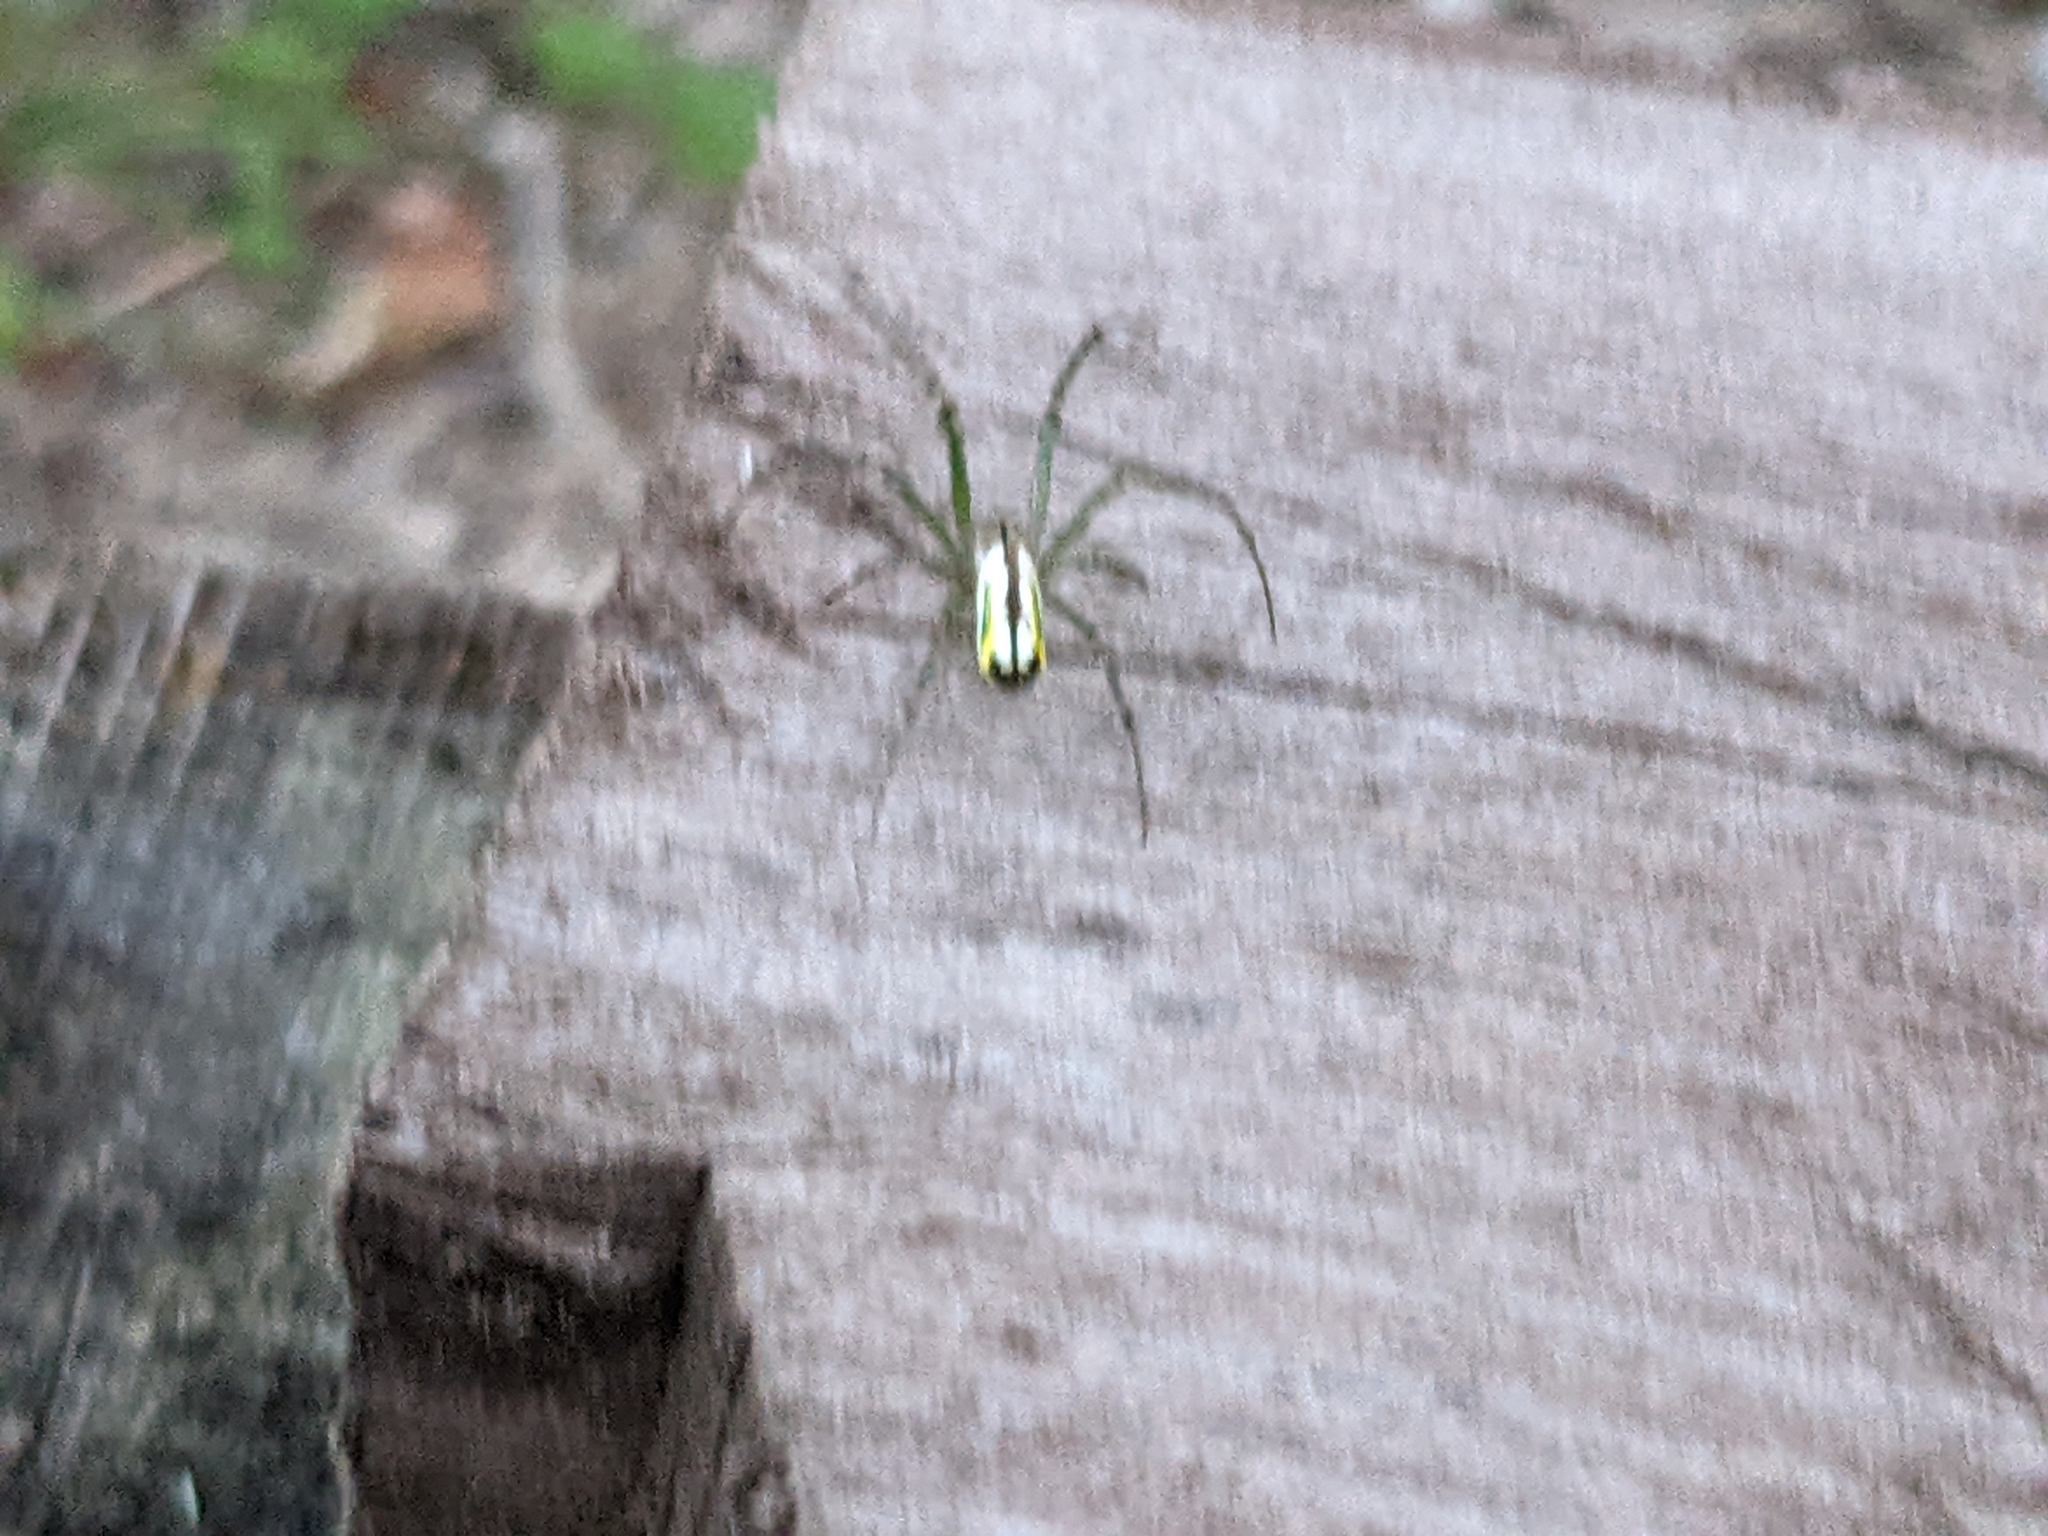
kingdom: Animalia
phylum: Arthropoda
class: Arachnida
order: Araneae
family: Tetragnathidae
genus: Leucauge
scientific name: Leucauge venusta
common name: Longjawed orb weavers
